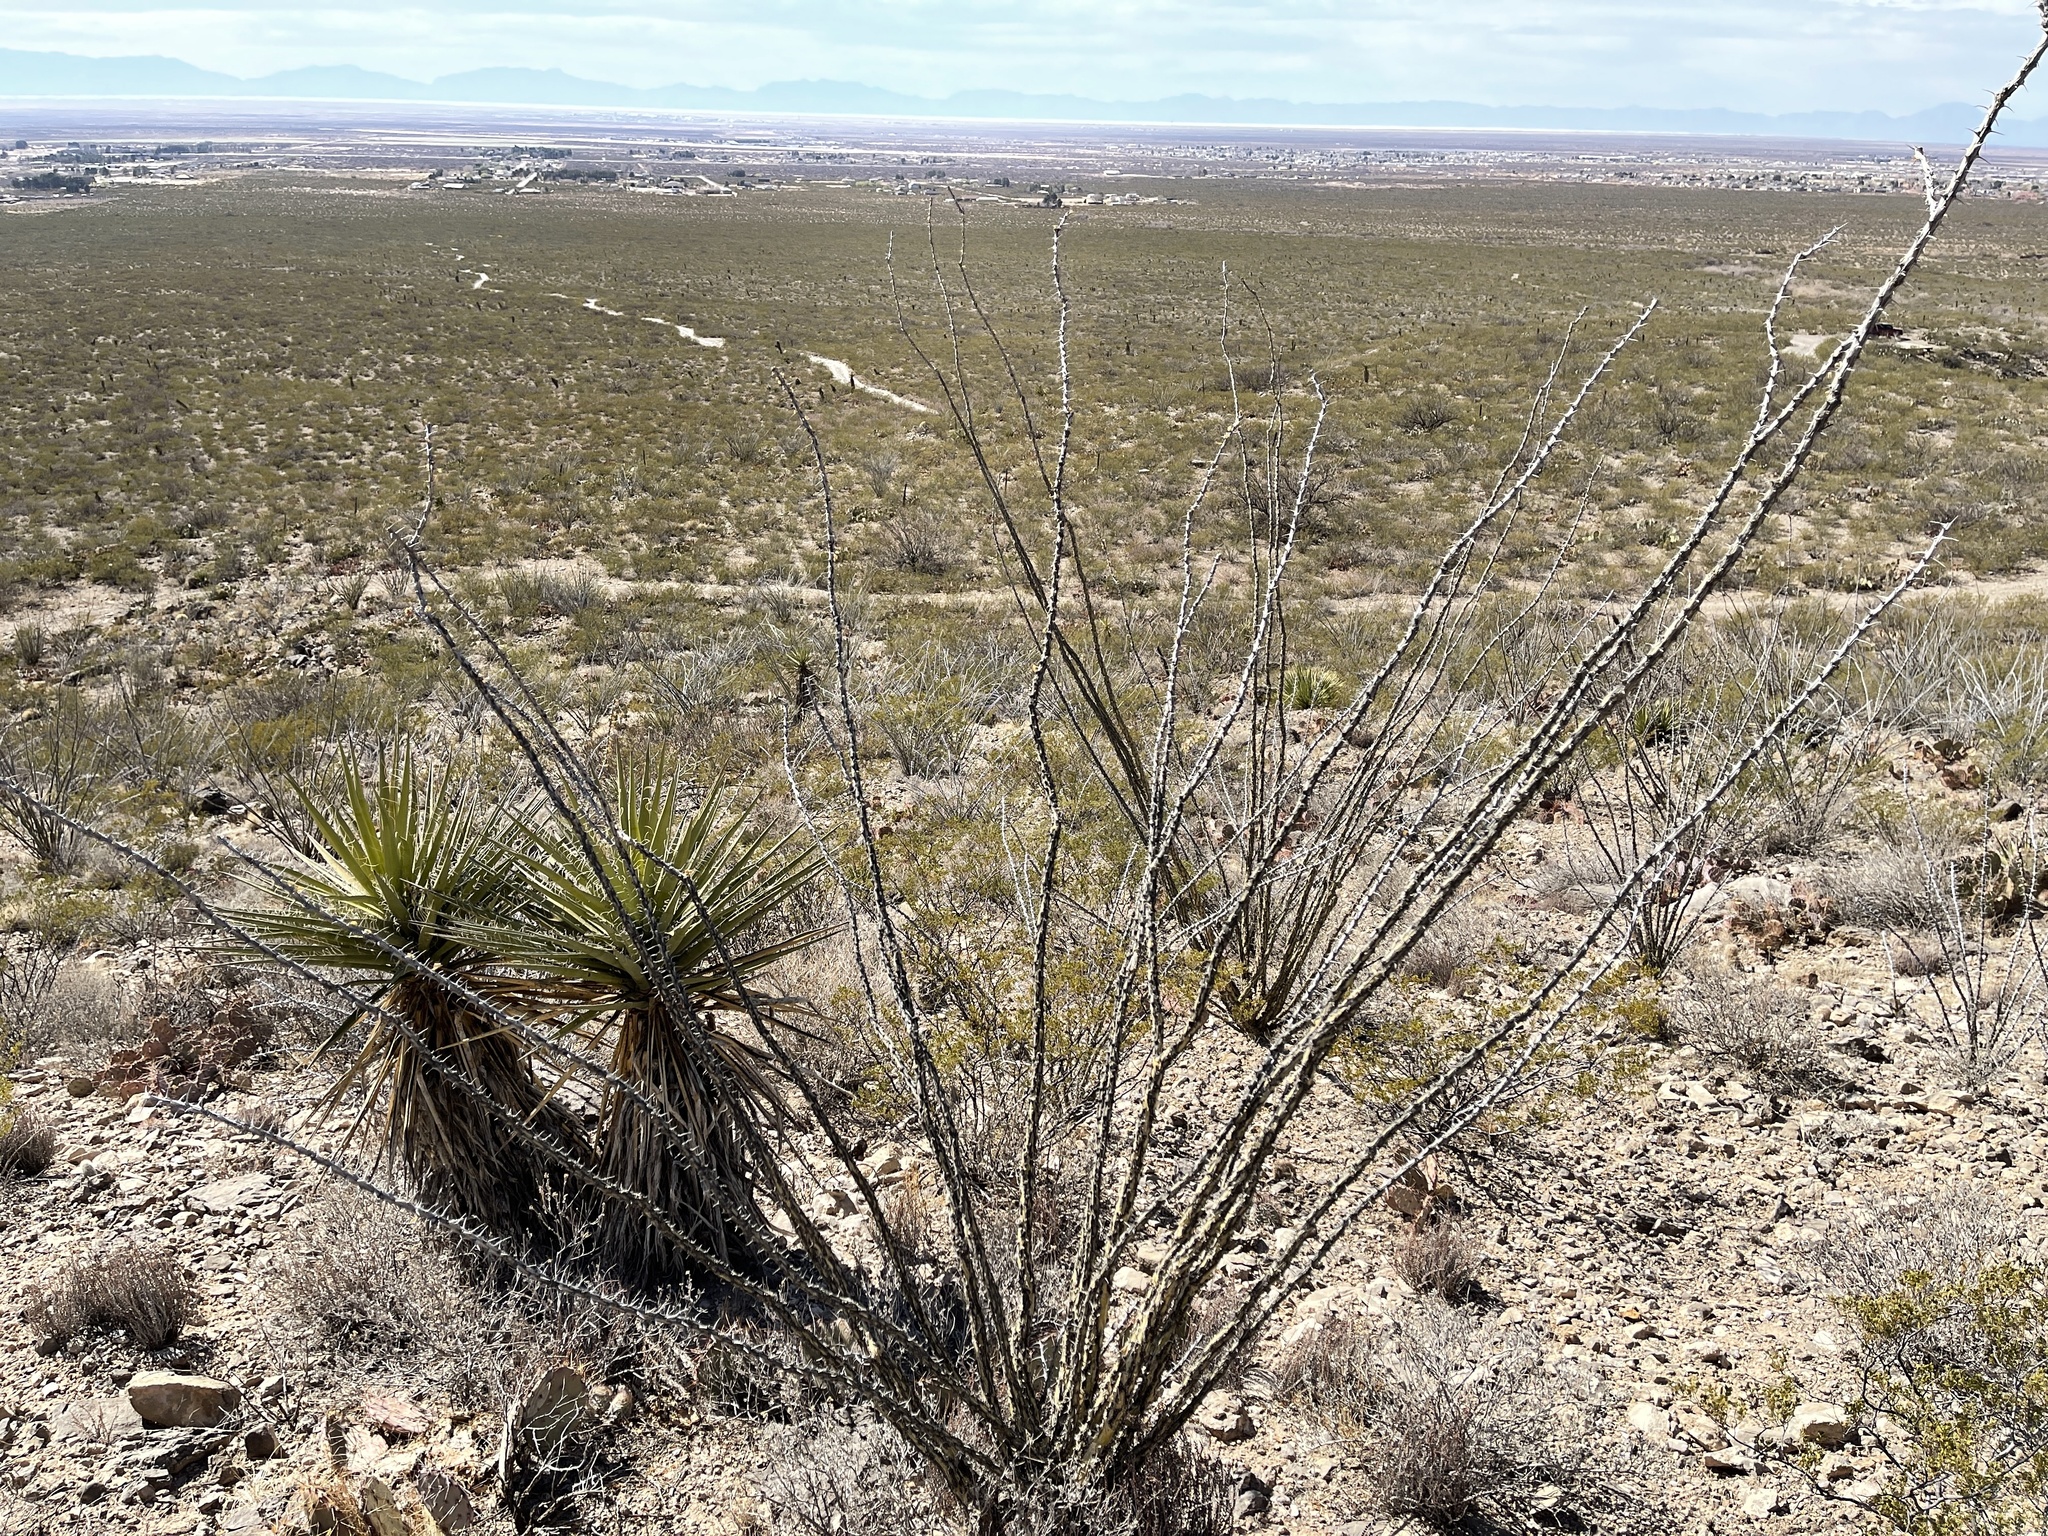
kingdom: Plantae
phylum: Tracheophyta
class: Magnoliopsida
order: Ericales
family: Fouquieriaceae
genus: Fouquieria
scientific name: Fouquieria splendens
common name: Vine-cactus
